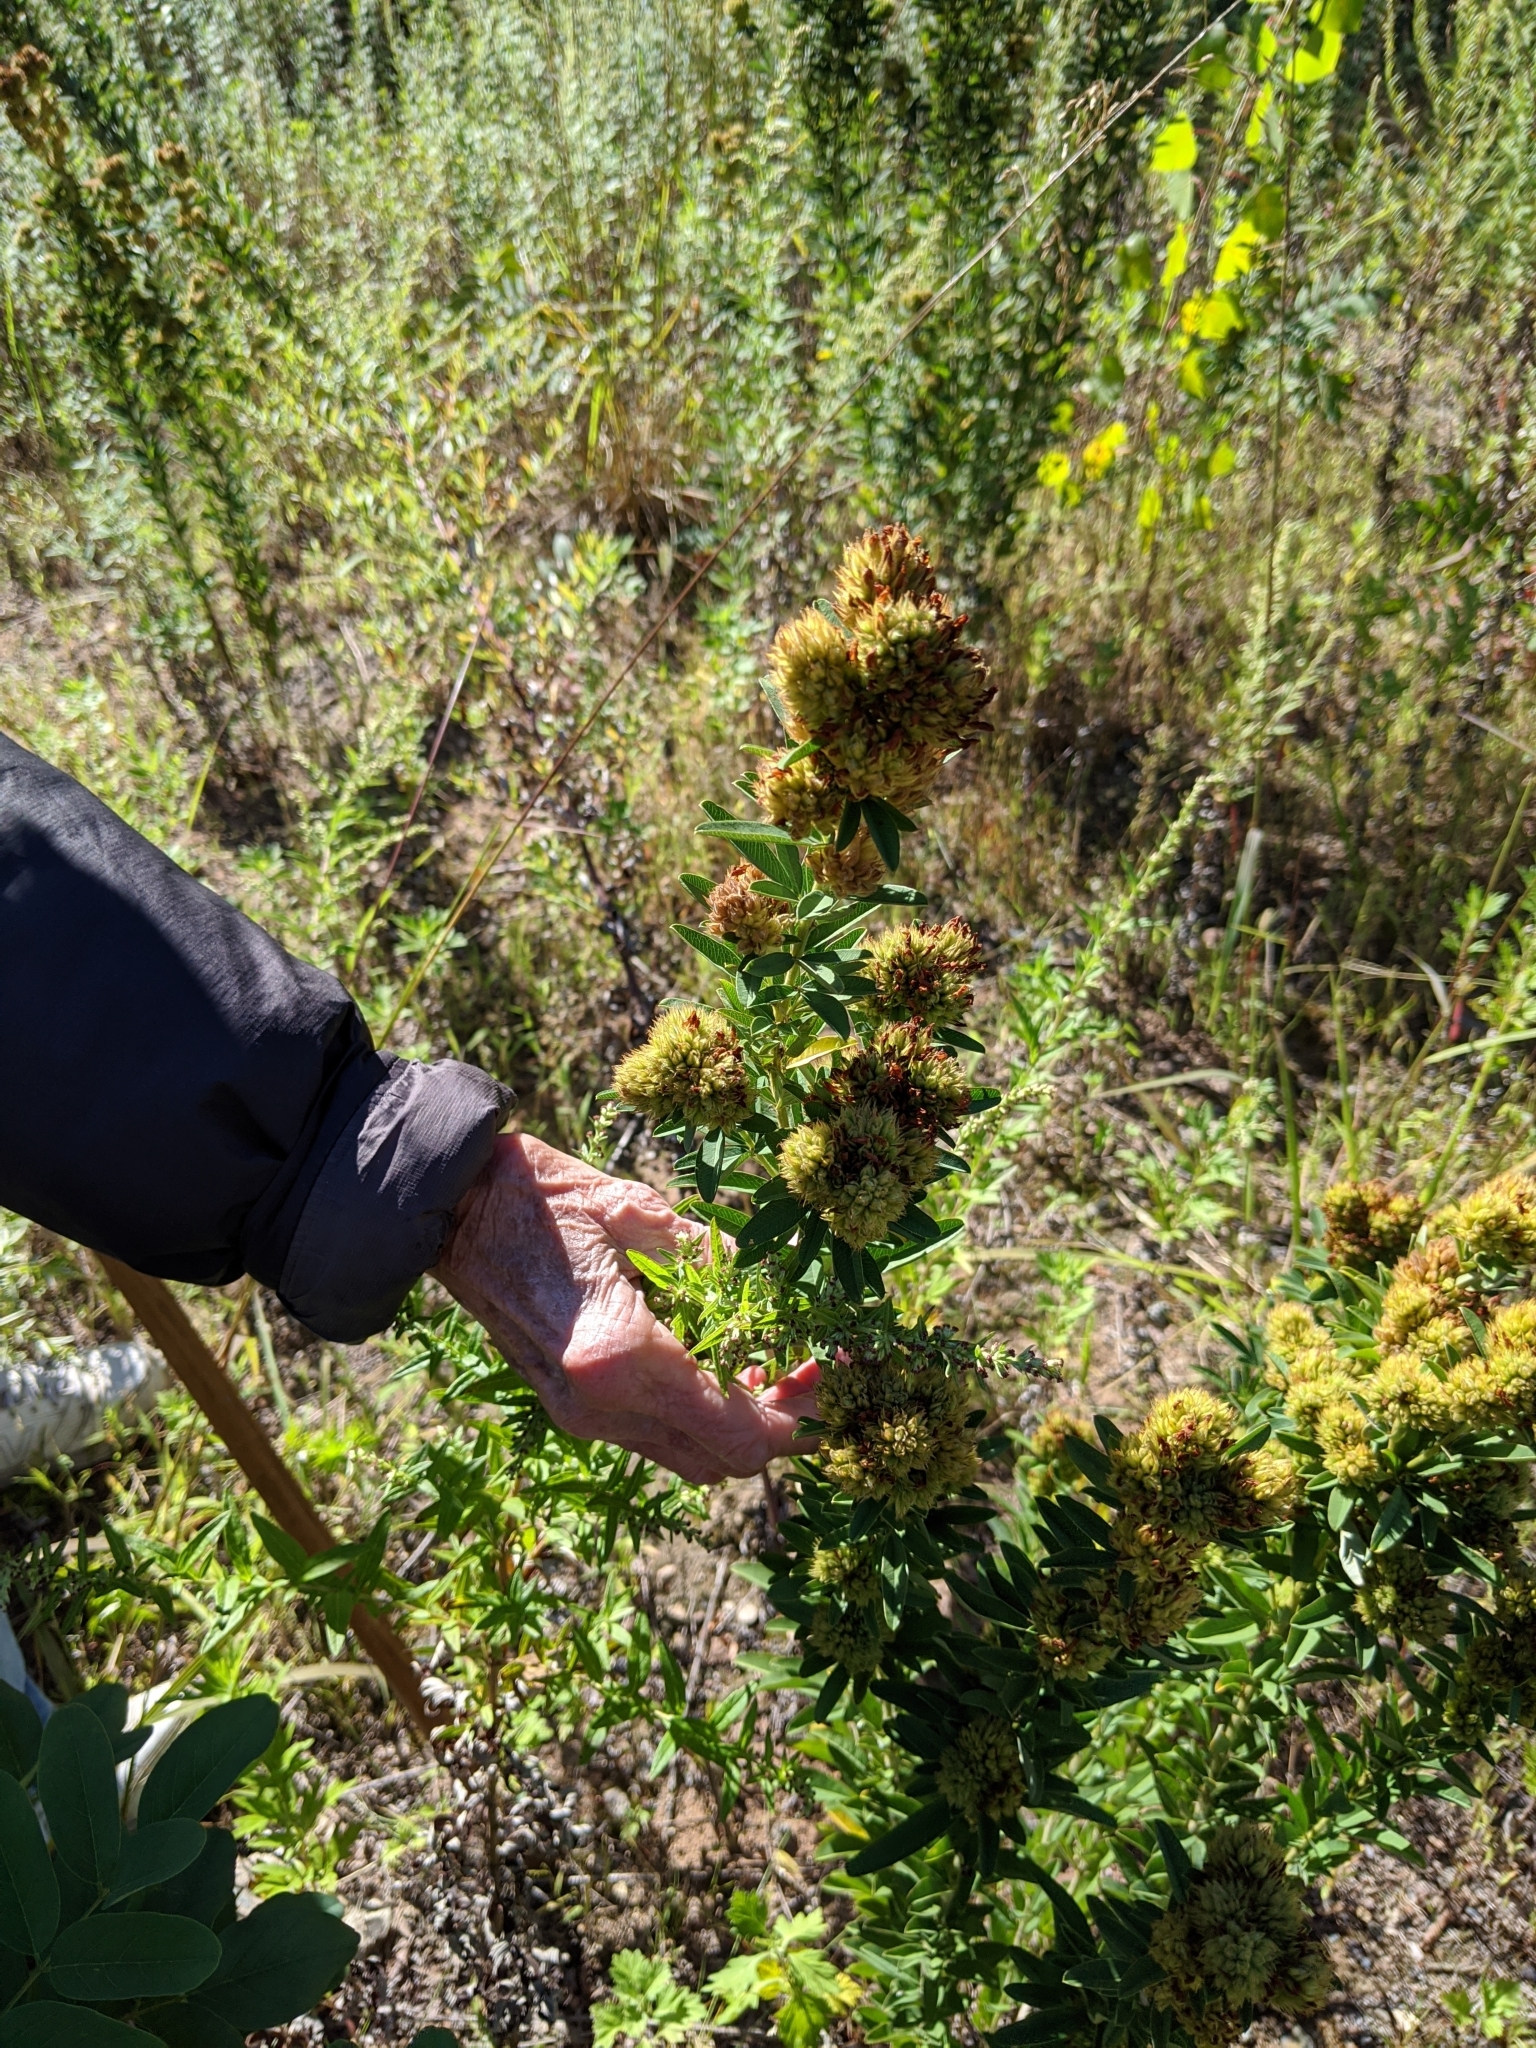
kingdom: Plantae
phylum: Tracheophyta
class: Magnoliopsida
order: Fabales
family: Fabaceae
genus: Lespedeza
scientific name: Lespedeza capitata
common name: Dusty clover
